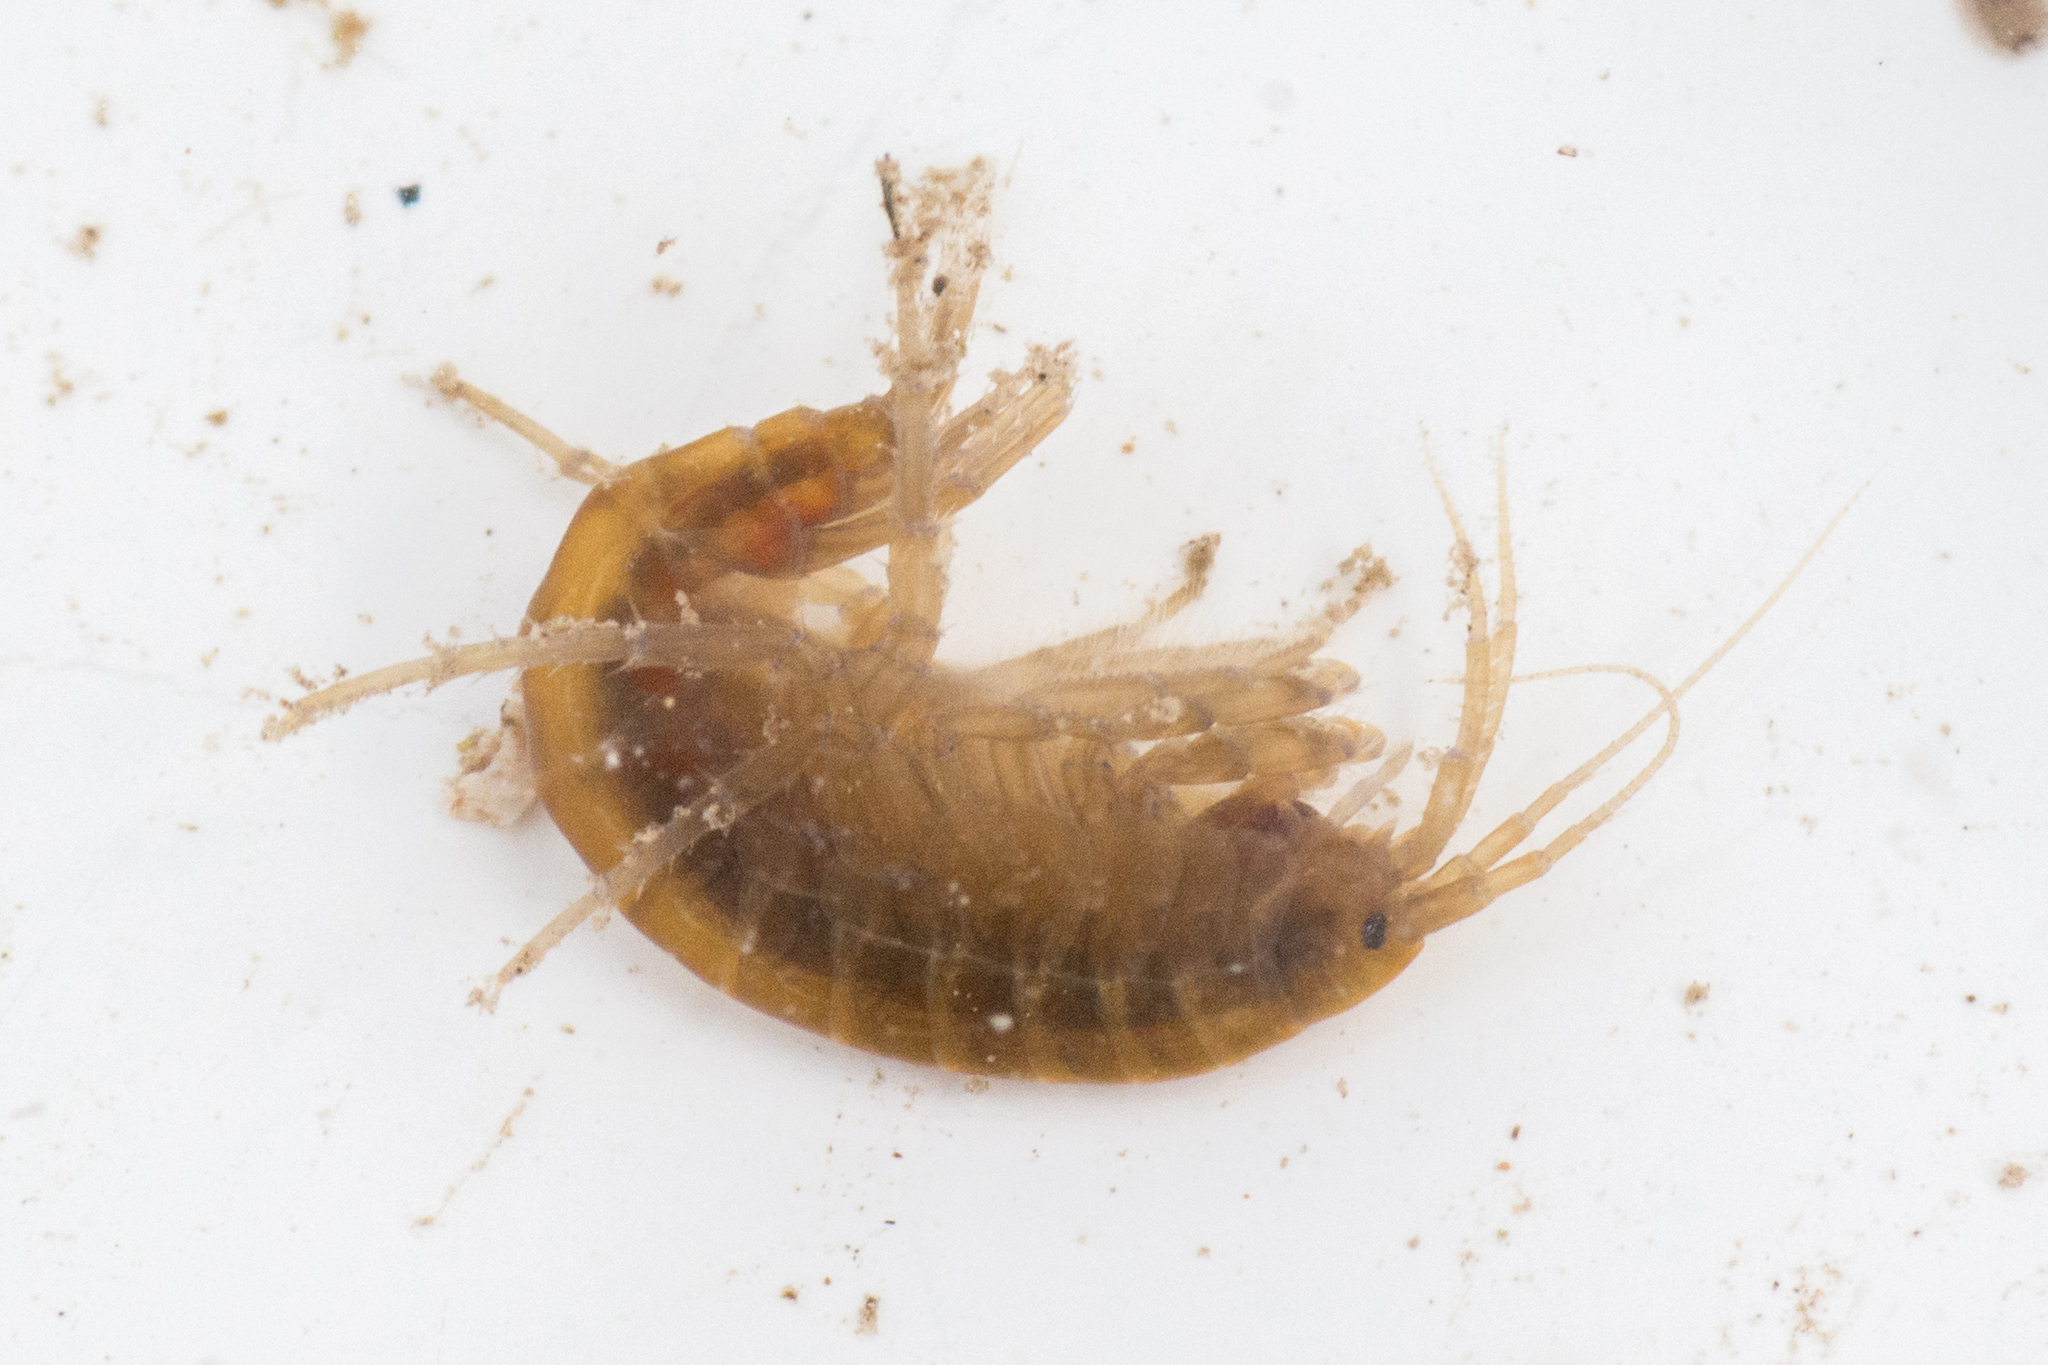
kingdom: Animalia
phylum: Arthropoda
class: Malacostraca
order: Amphipoda
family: Gammaridae
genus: Gammarus
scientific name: Gammarus lacustris
